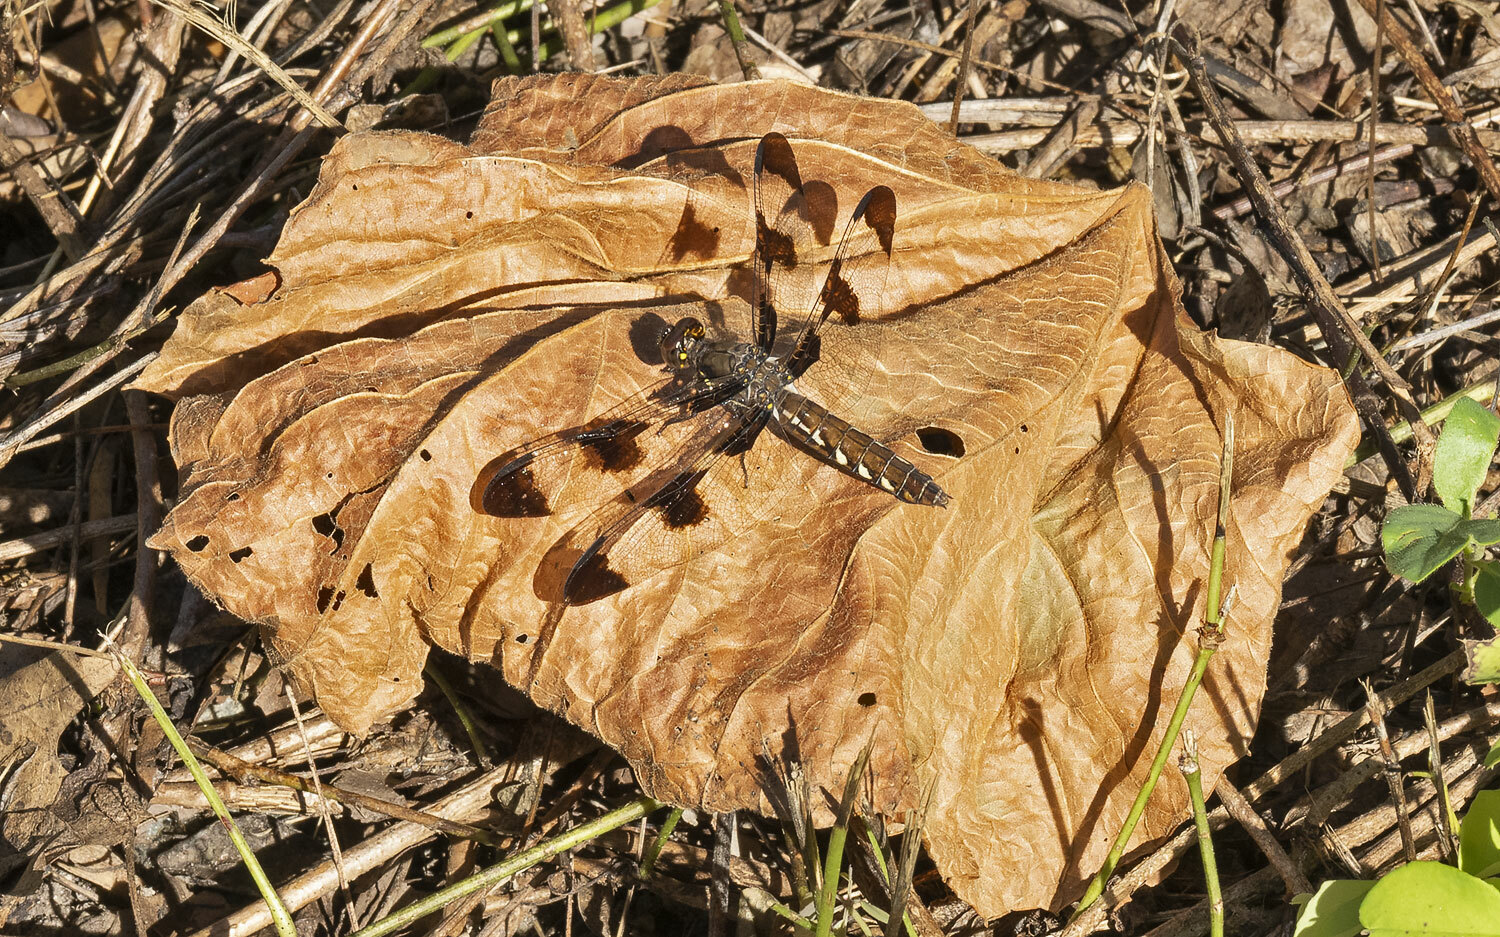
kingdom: Animalia
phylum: Arthropoda
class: Insecta
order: Odonata
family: Libellulidae
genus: Plathemis
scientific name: Plathemis lydia
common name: Common whitetail
